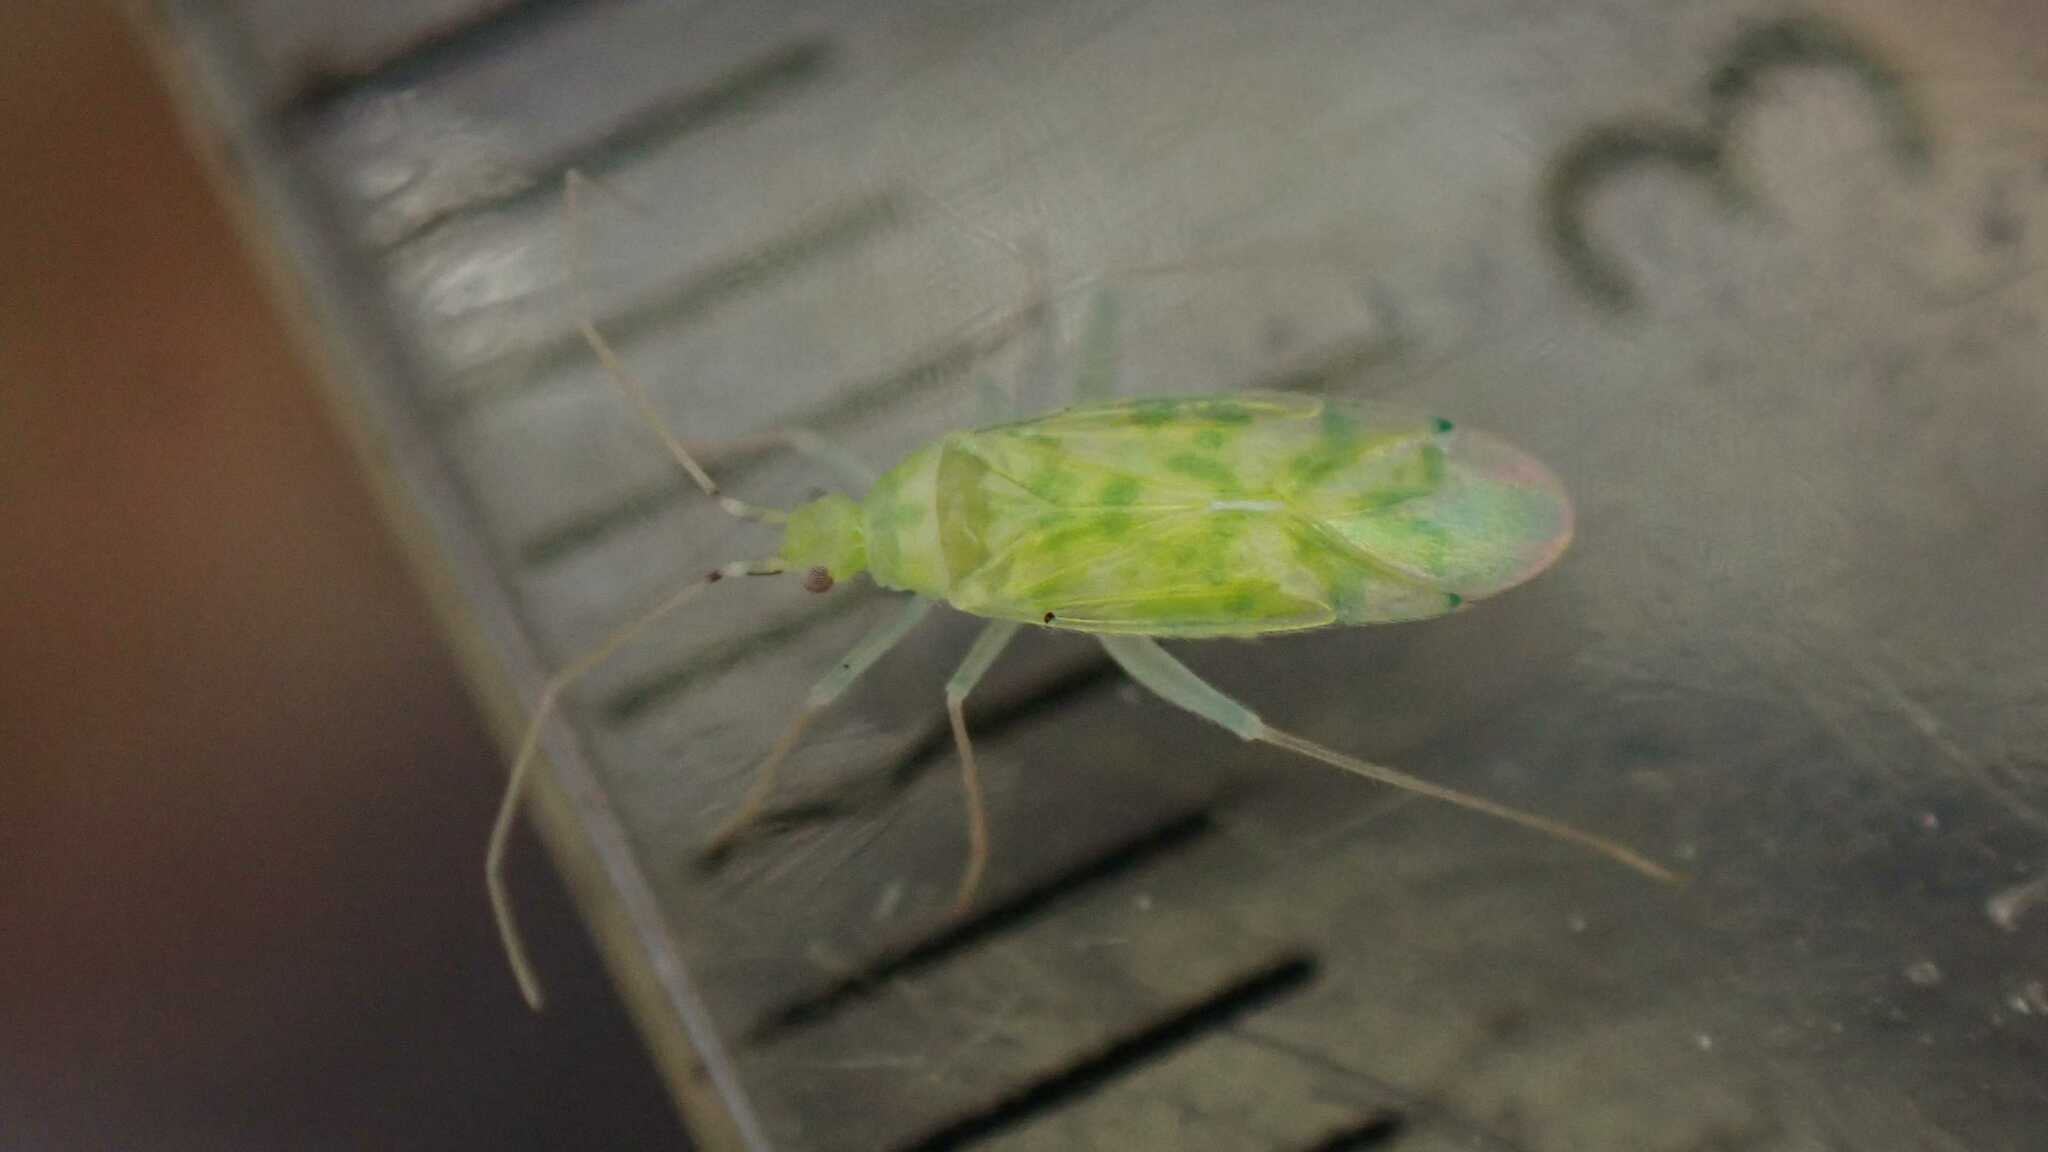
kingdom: Animalia
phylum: Arthropoda
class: Insecta
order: Hemiptera
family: Miridae
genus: Malacocoris
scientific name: Malacocoris chlorizans
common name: Plant bug
